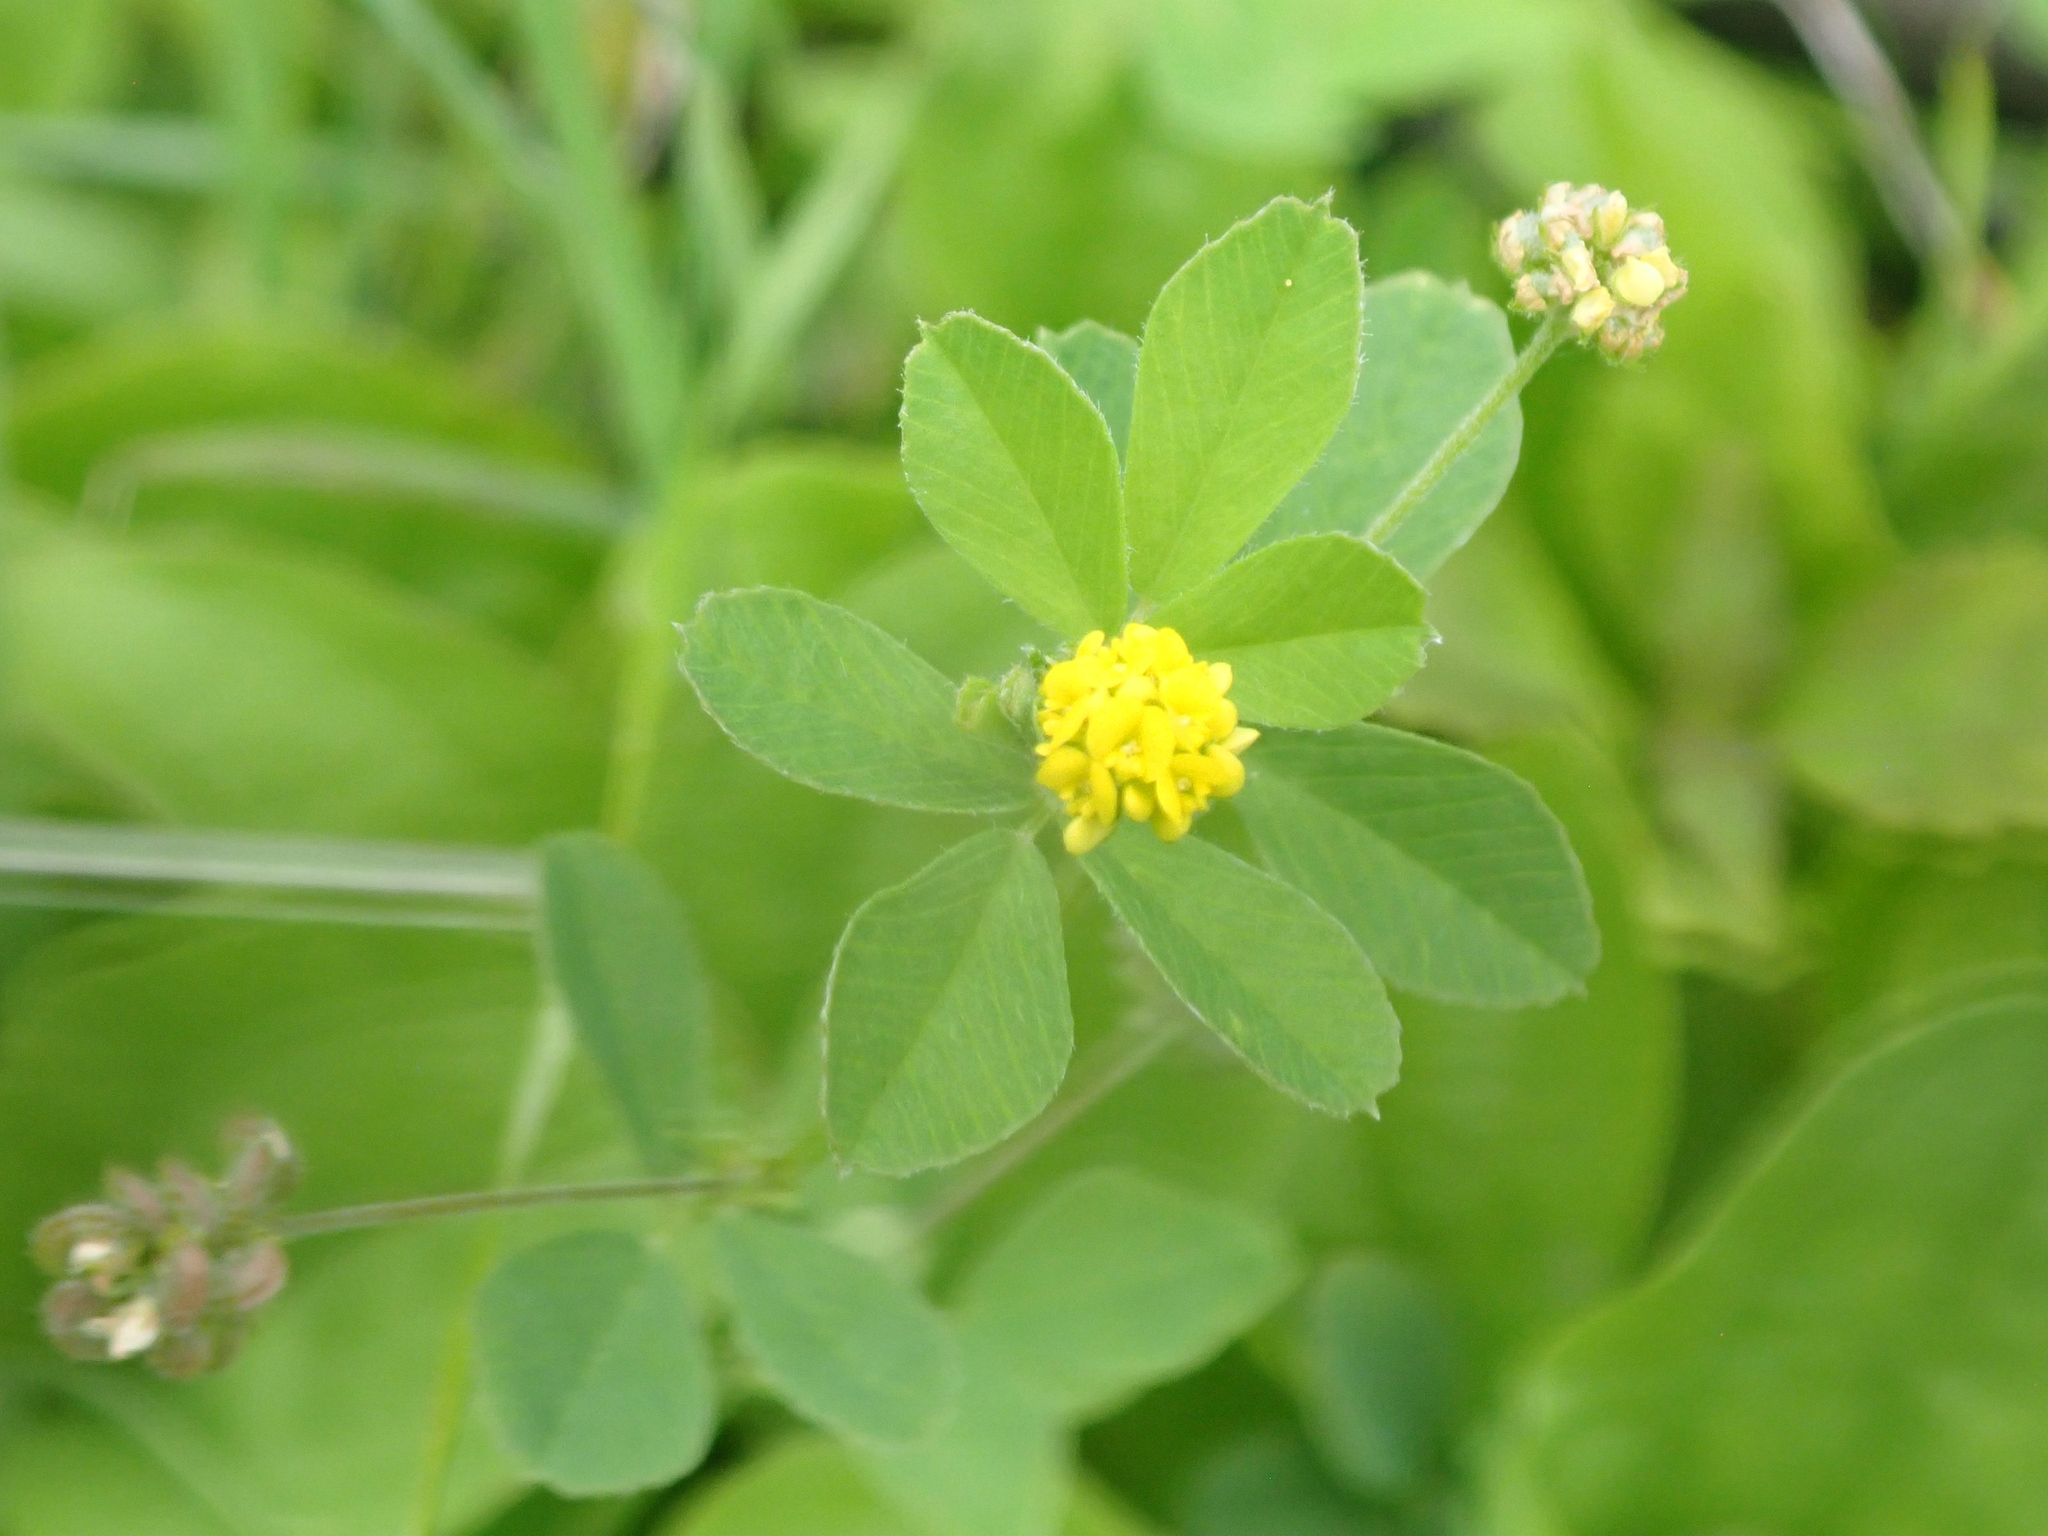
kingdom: Plantae
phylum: Tracheophyta
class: Magnoliopsida
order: Fabales
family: Fabaceae
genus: Medicago
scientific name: Medicago lupulina
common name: Black medick
